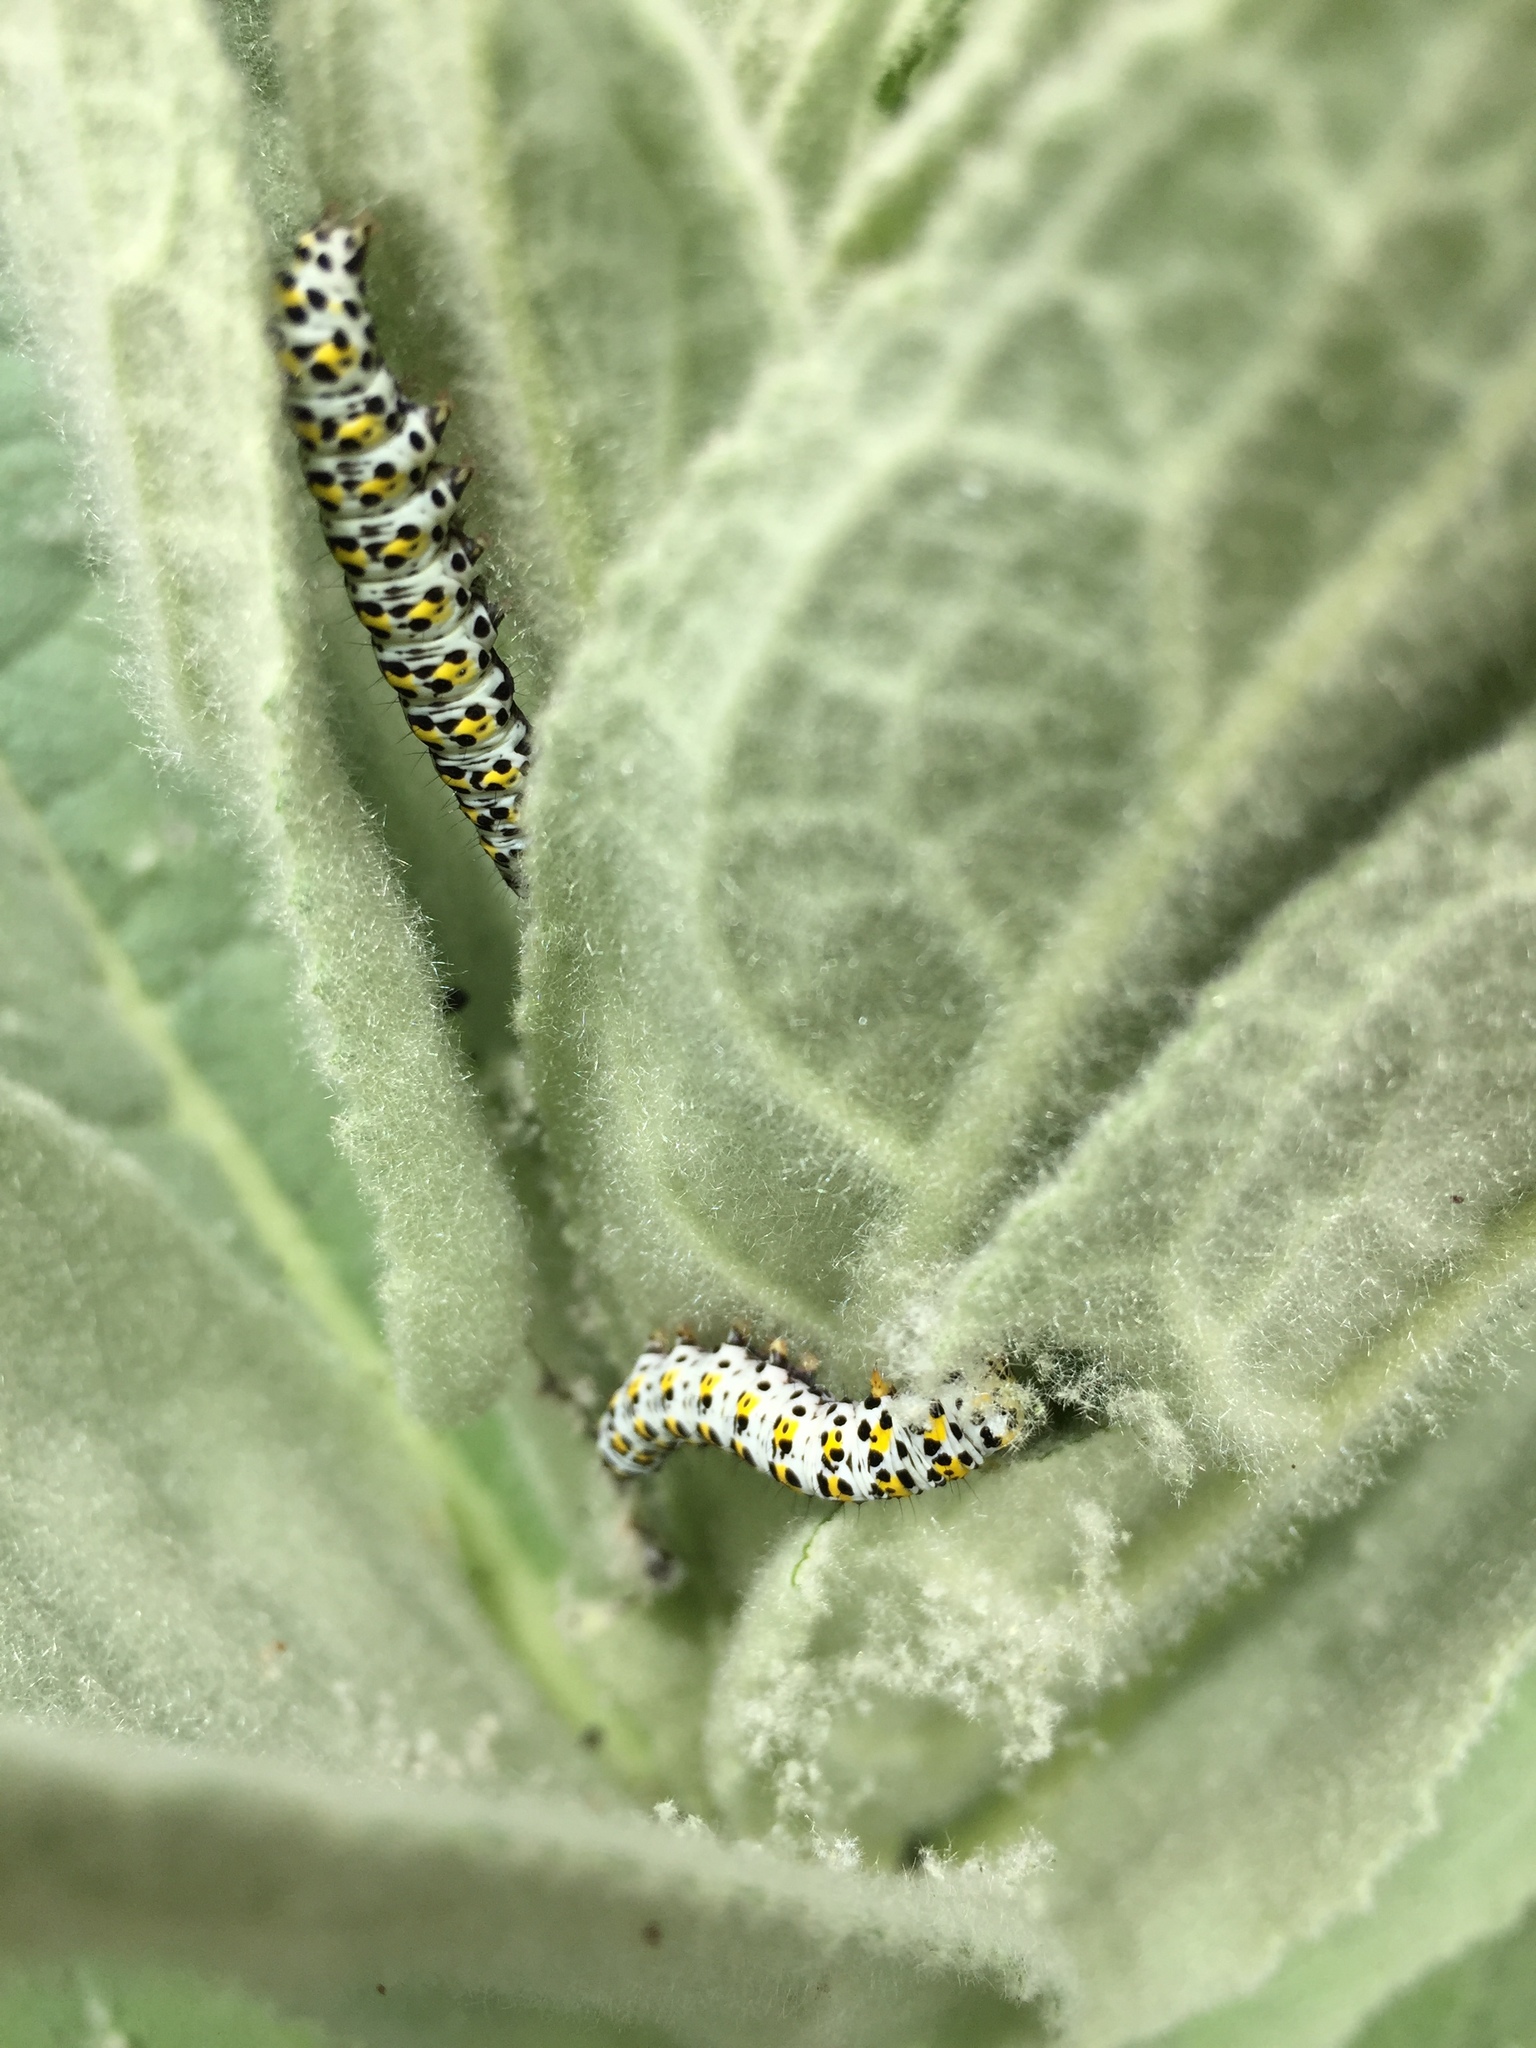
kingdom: Animalia
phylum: Arthropoda
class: Insecta
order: Lepidoptera
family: Noctuidae
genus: Cucullia
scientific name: Cucullia verbasci
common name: Mullein
